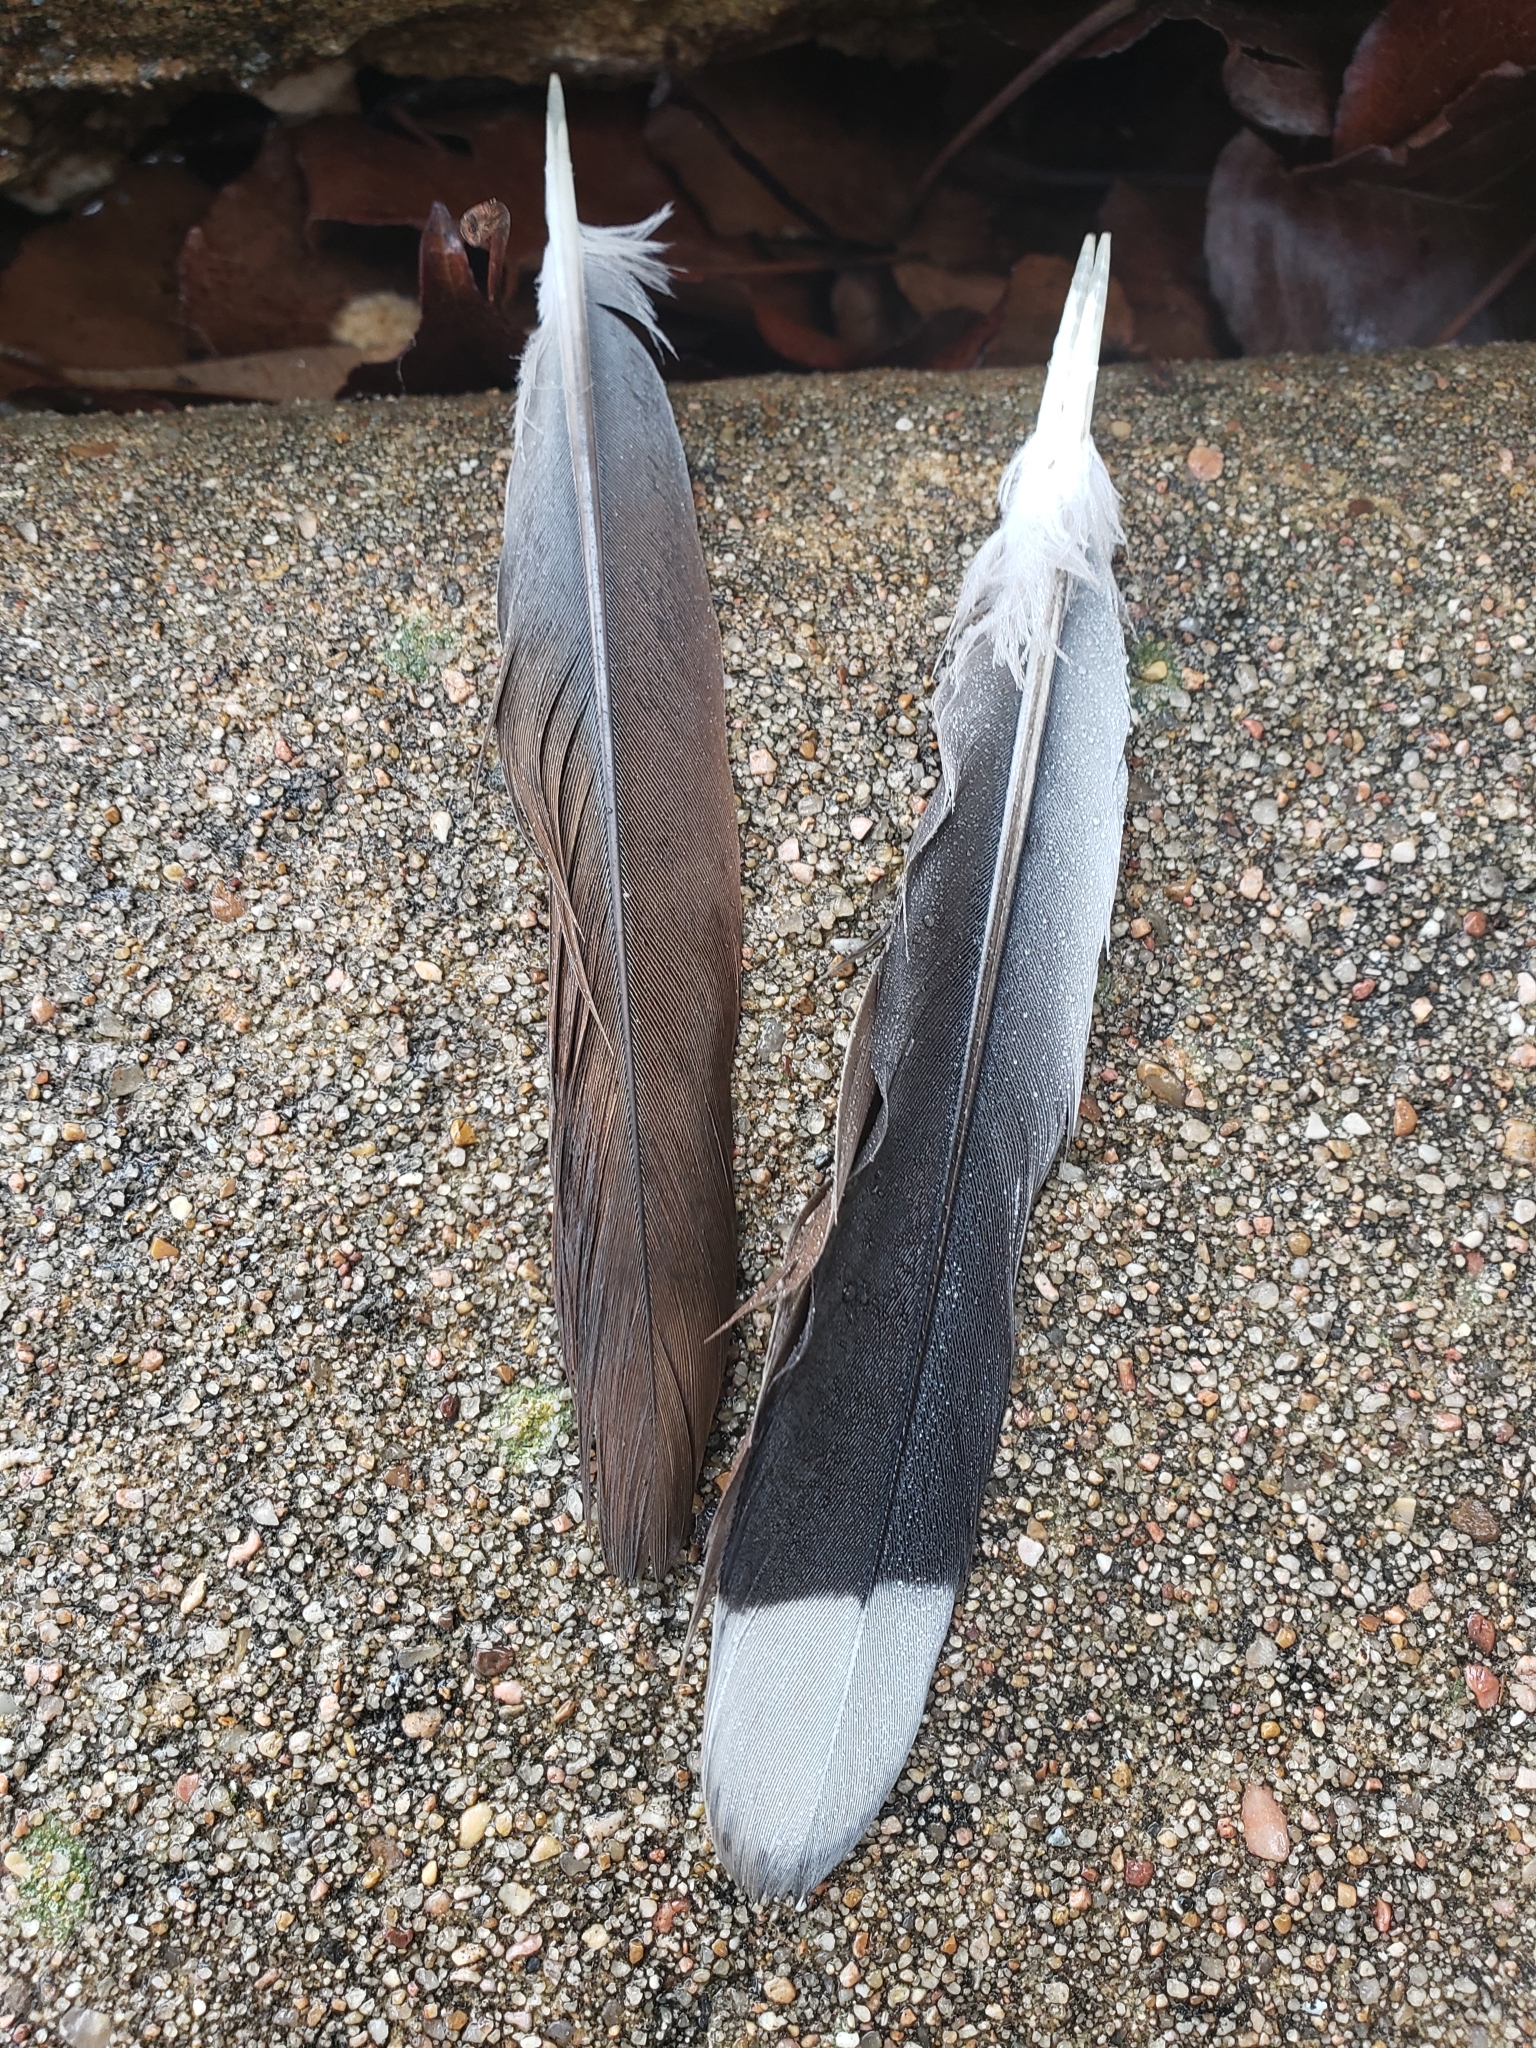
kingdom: Animalia
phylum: Chordata
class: Aves
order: Columbiformes
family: Columbidae
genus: Zenaida
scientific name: Zenaida asiatica
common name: White-winged dove
